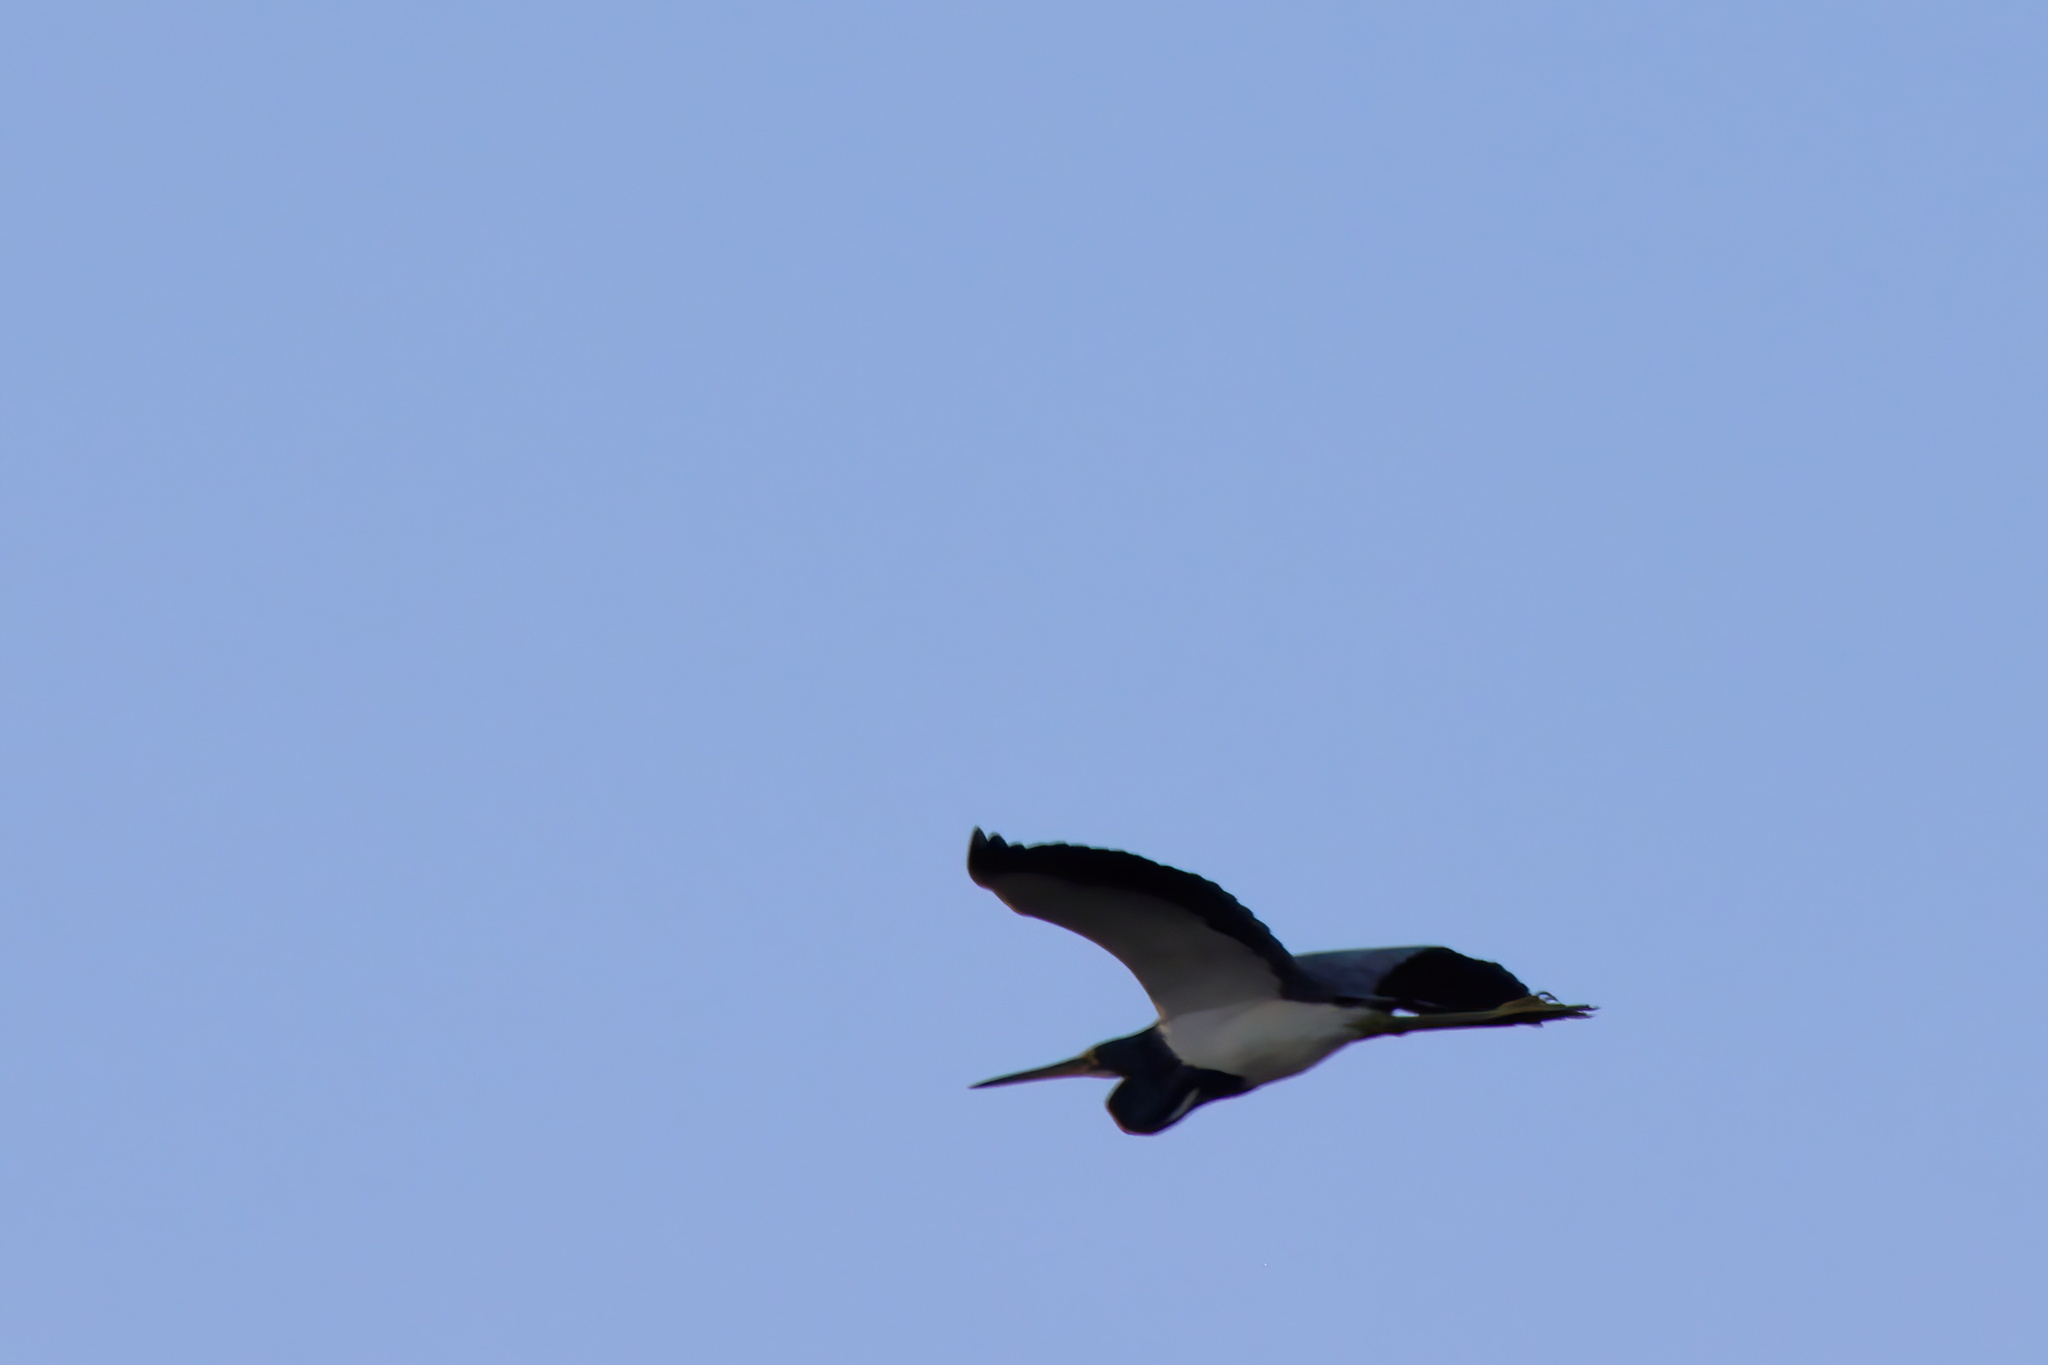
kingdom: Animalia
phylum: Chordata
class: Aves
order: Pelecaniformes
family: Ardeidae
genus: Egretta
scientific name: Egretta tricolor
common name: Tricolored heron
